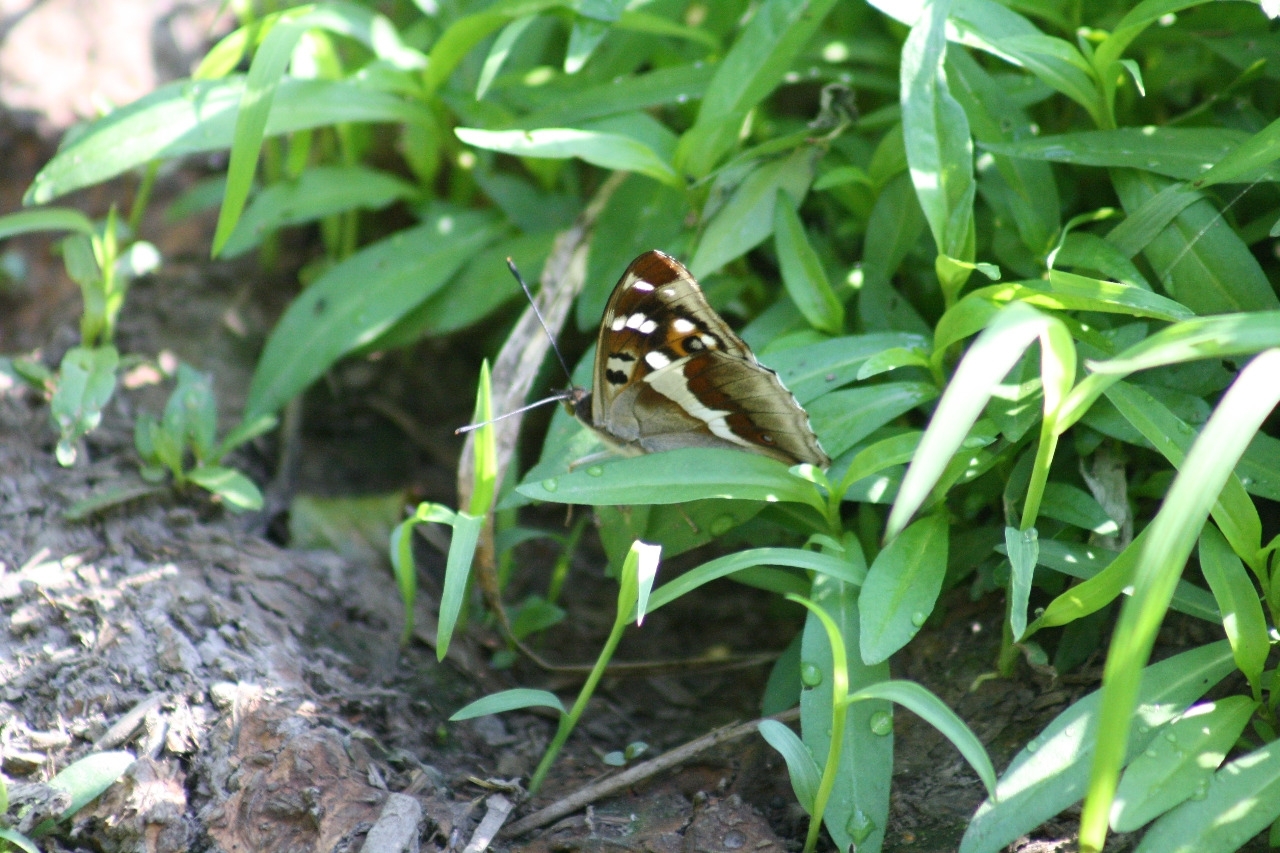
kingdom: Animalia
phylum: Arthropoda
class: Insecta
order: Lepidoptera
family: Nymphalidae
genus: Apatura
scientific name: Apatura iris
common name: Purple emperor
